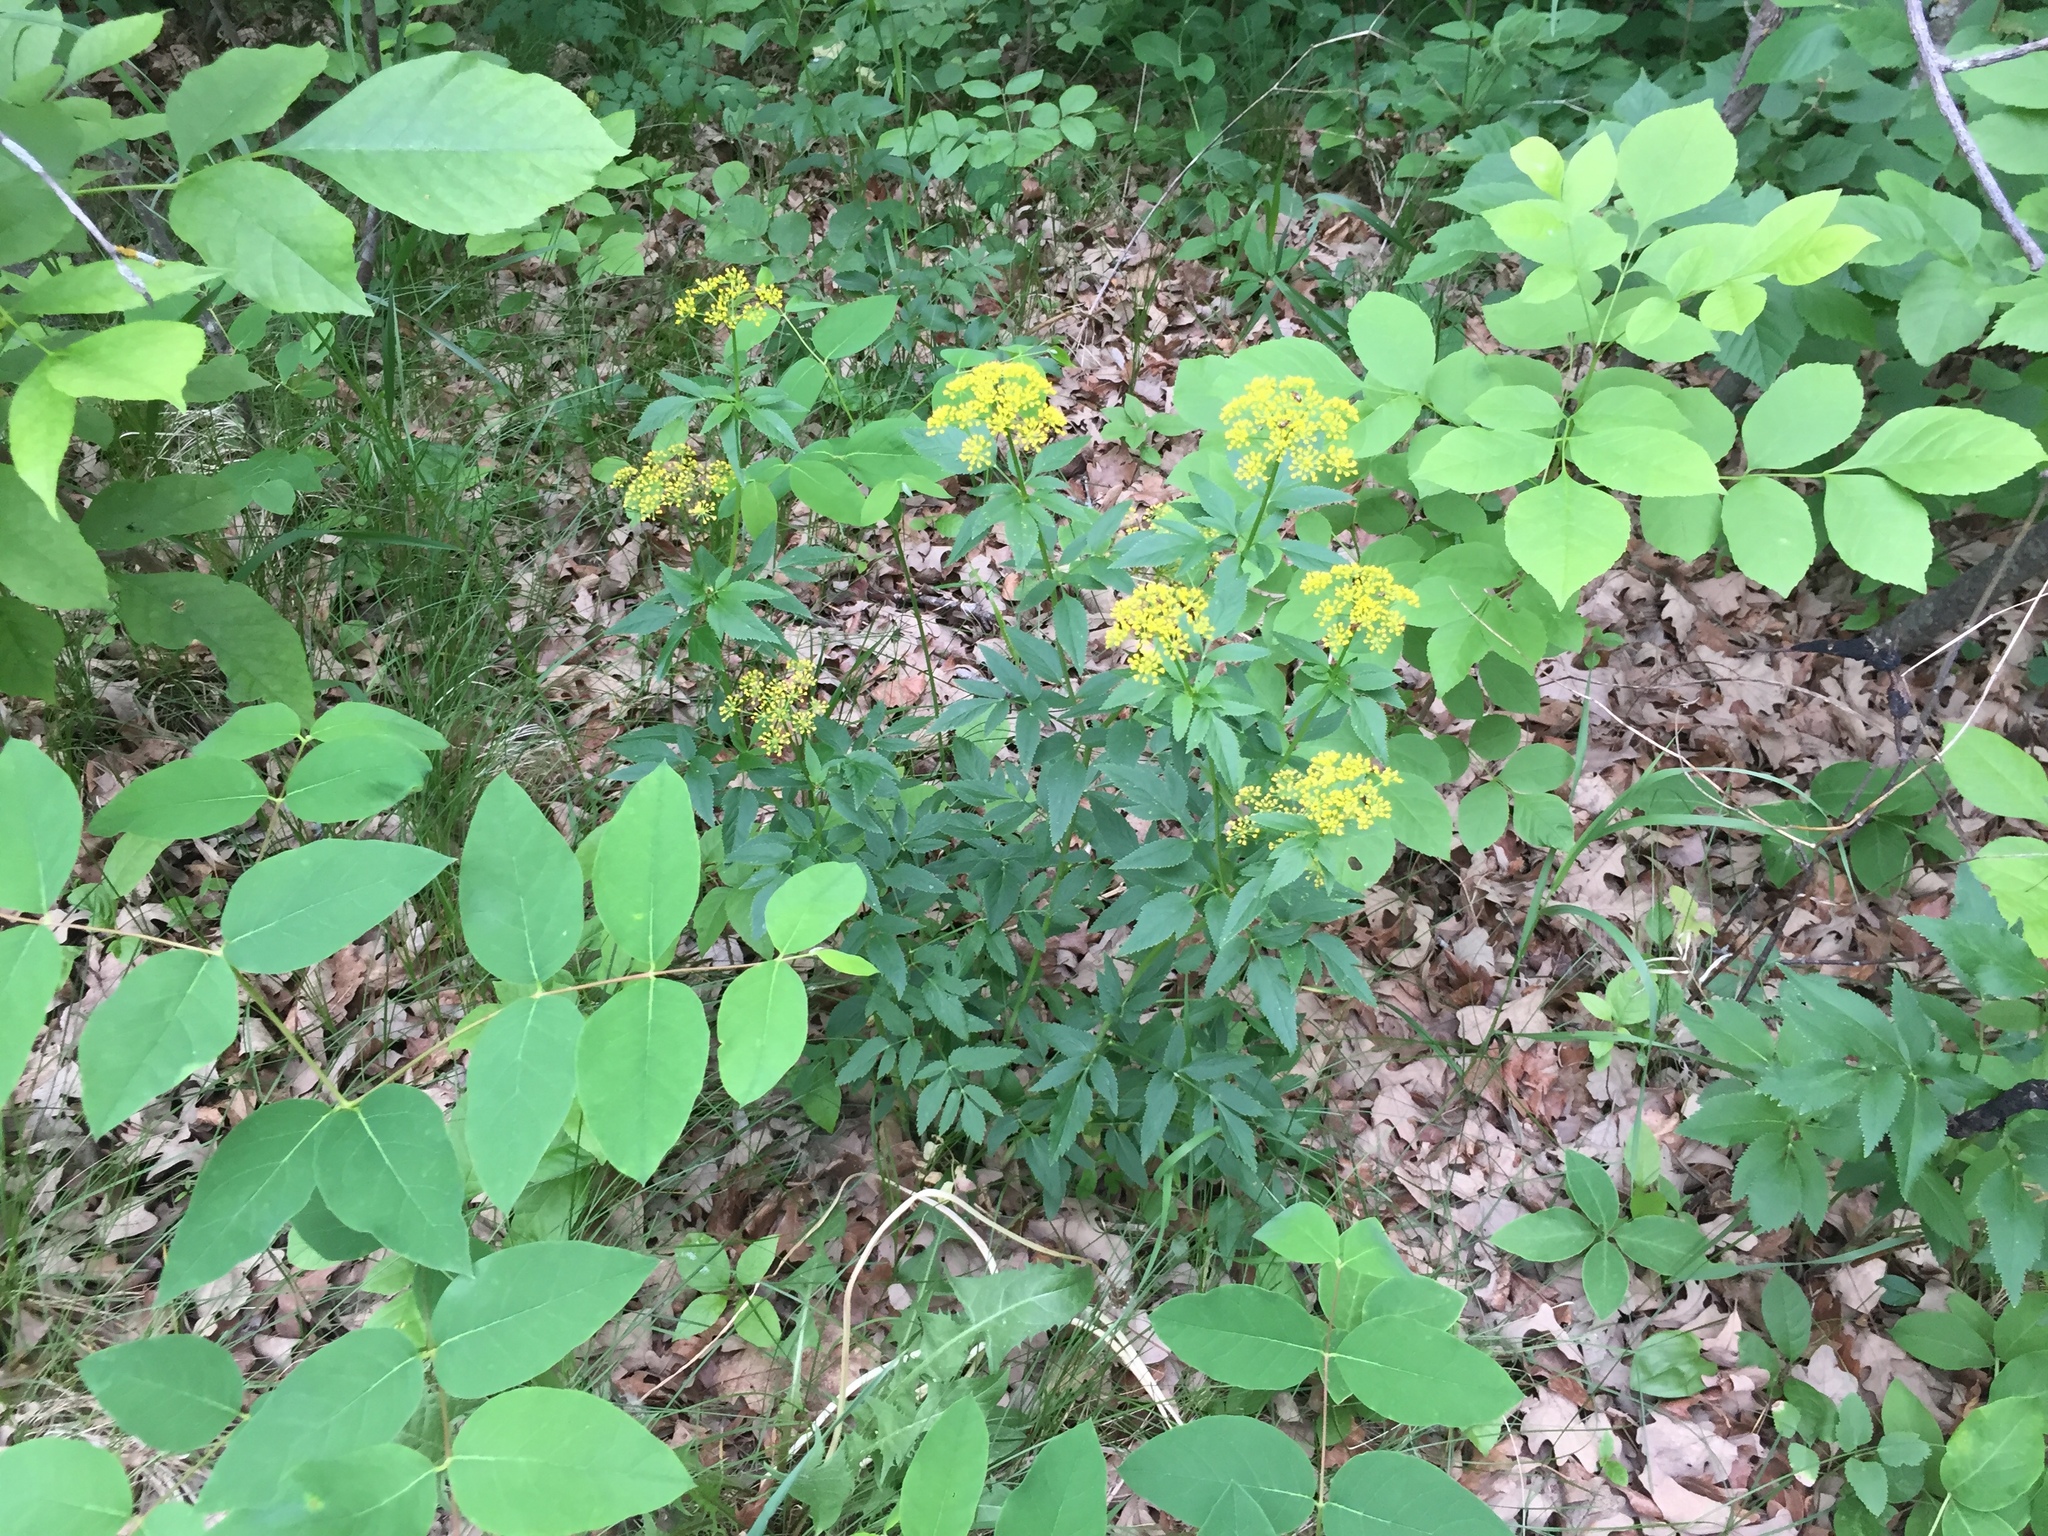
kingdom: Plantae
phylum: Tracheophyta
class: Magnoliopsida
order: Apiales
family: Apiaceae
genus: Zizia
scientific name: Zizia aurea
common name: Golden alexanders
